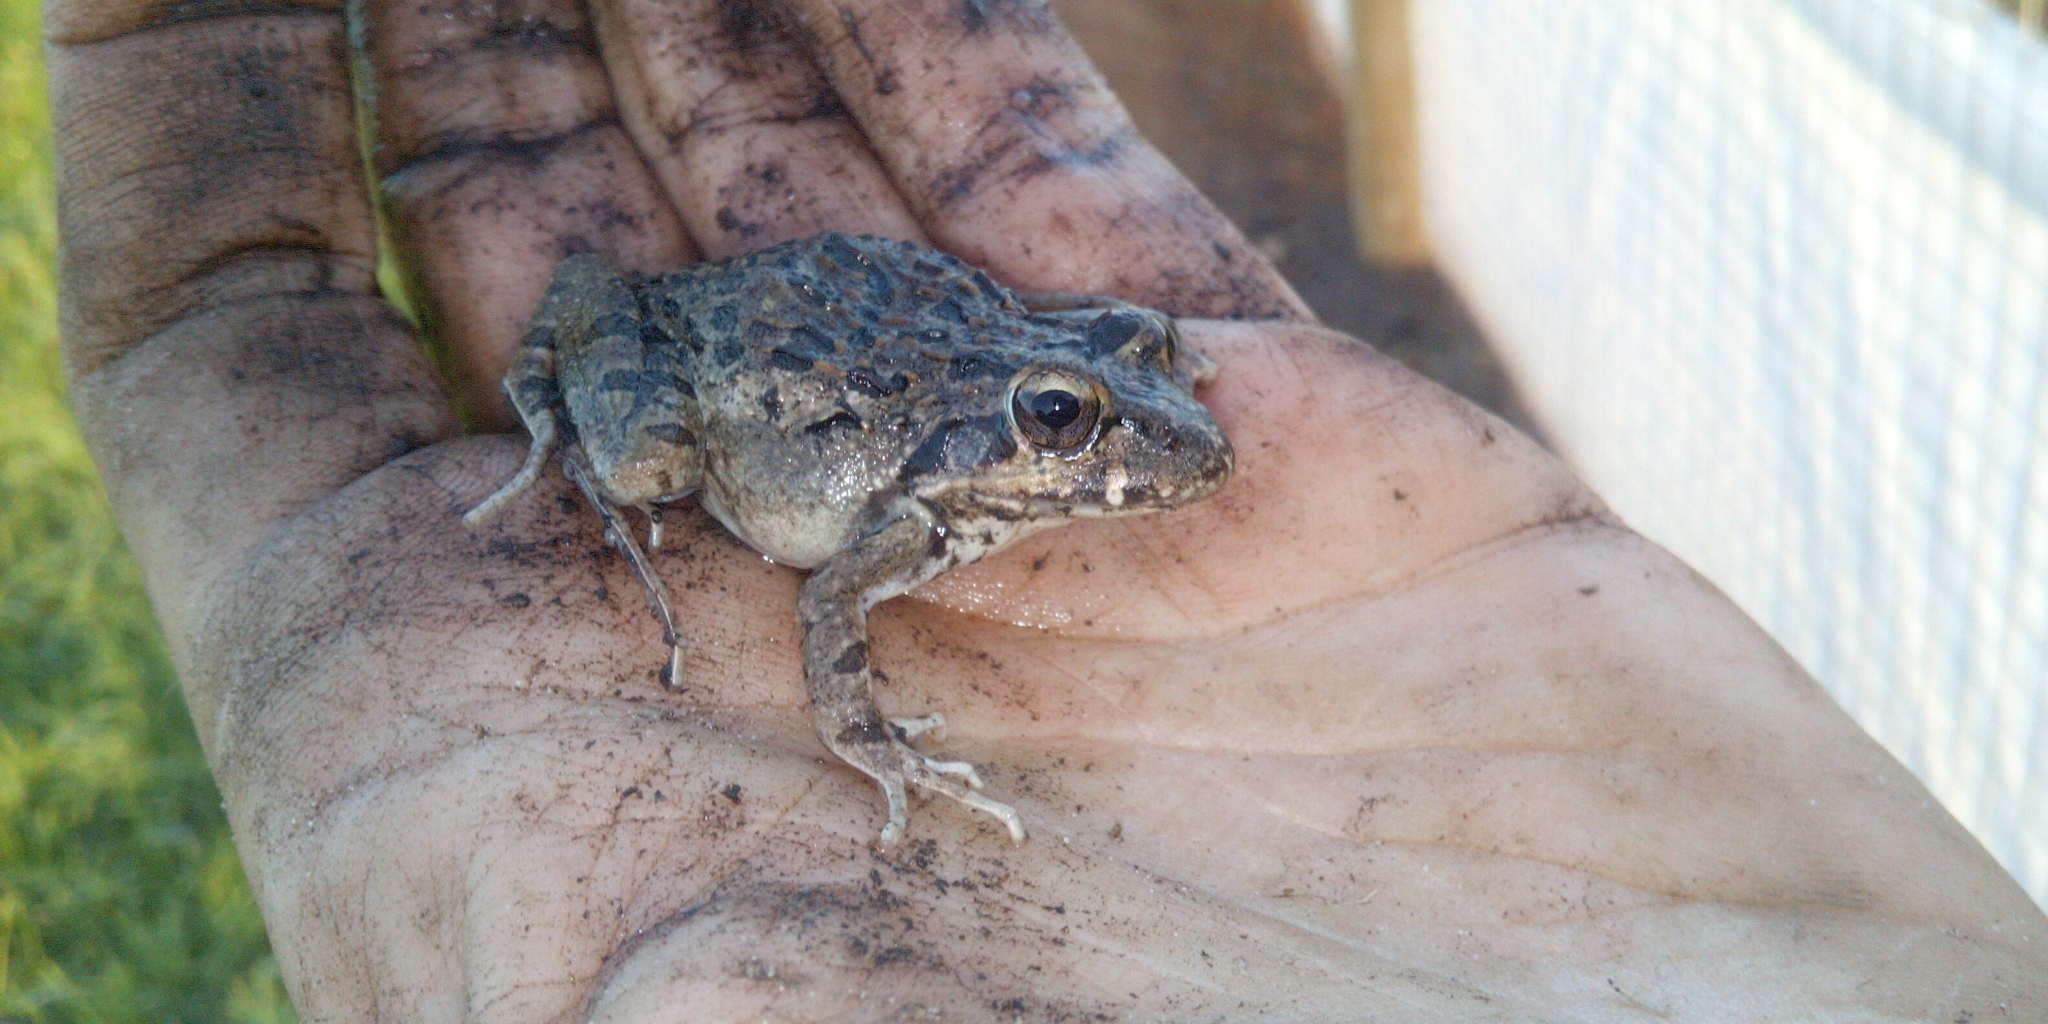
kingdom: Animalia
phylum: Chordata
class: Amphibia
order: Anura
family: Pyxicephalidae
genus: Strongylopus
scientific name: Strongylopus grayii
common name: Gray's stream frog
